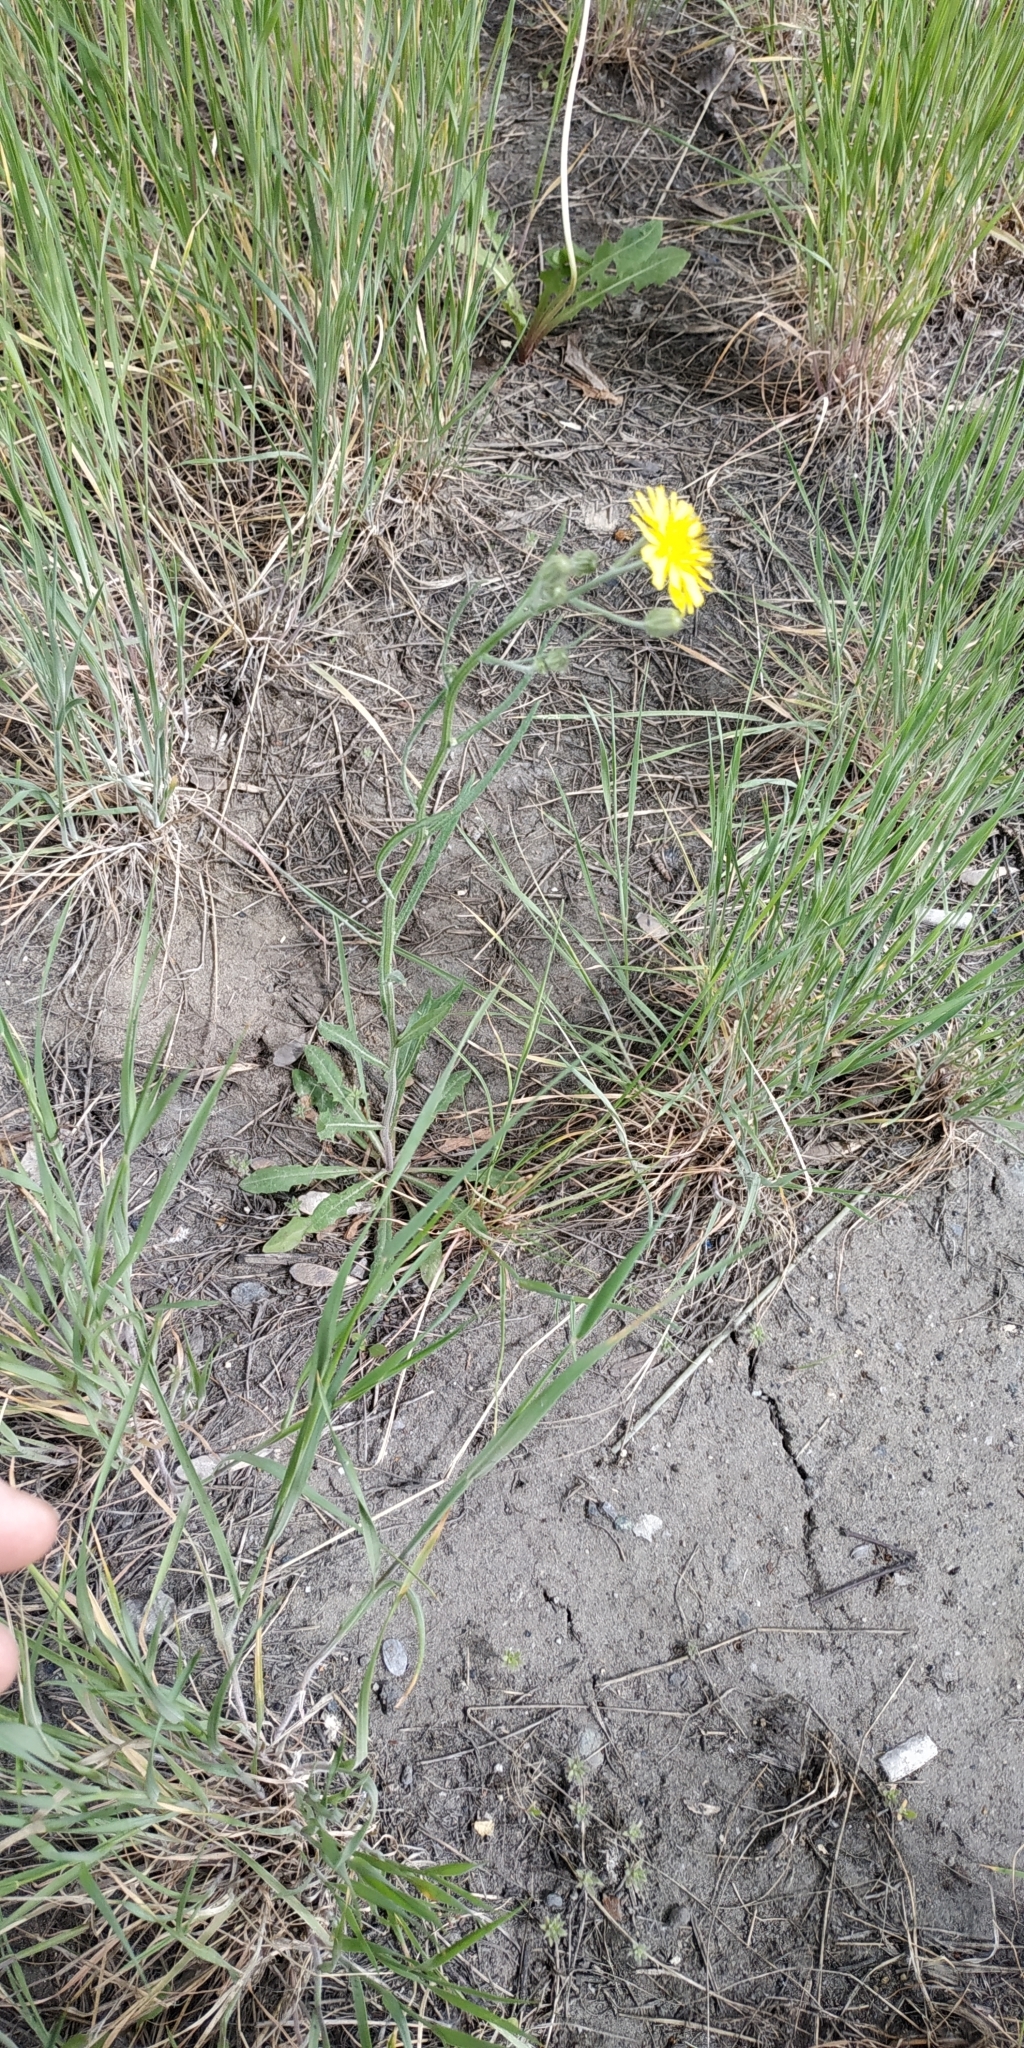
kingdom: Plantae
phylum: Tracheophyta
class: Magnoliopsida
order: Asterales
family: Asteraceae
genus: Crepis
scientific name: Crepis tectorum
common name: Narrow-leaved hawk's-beard
